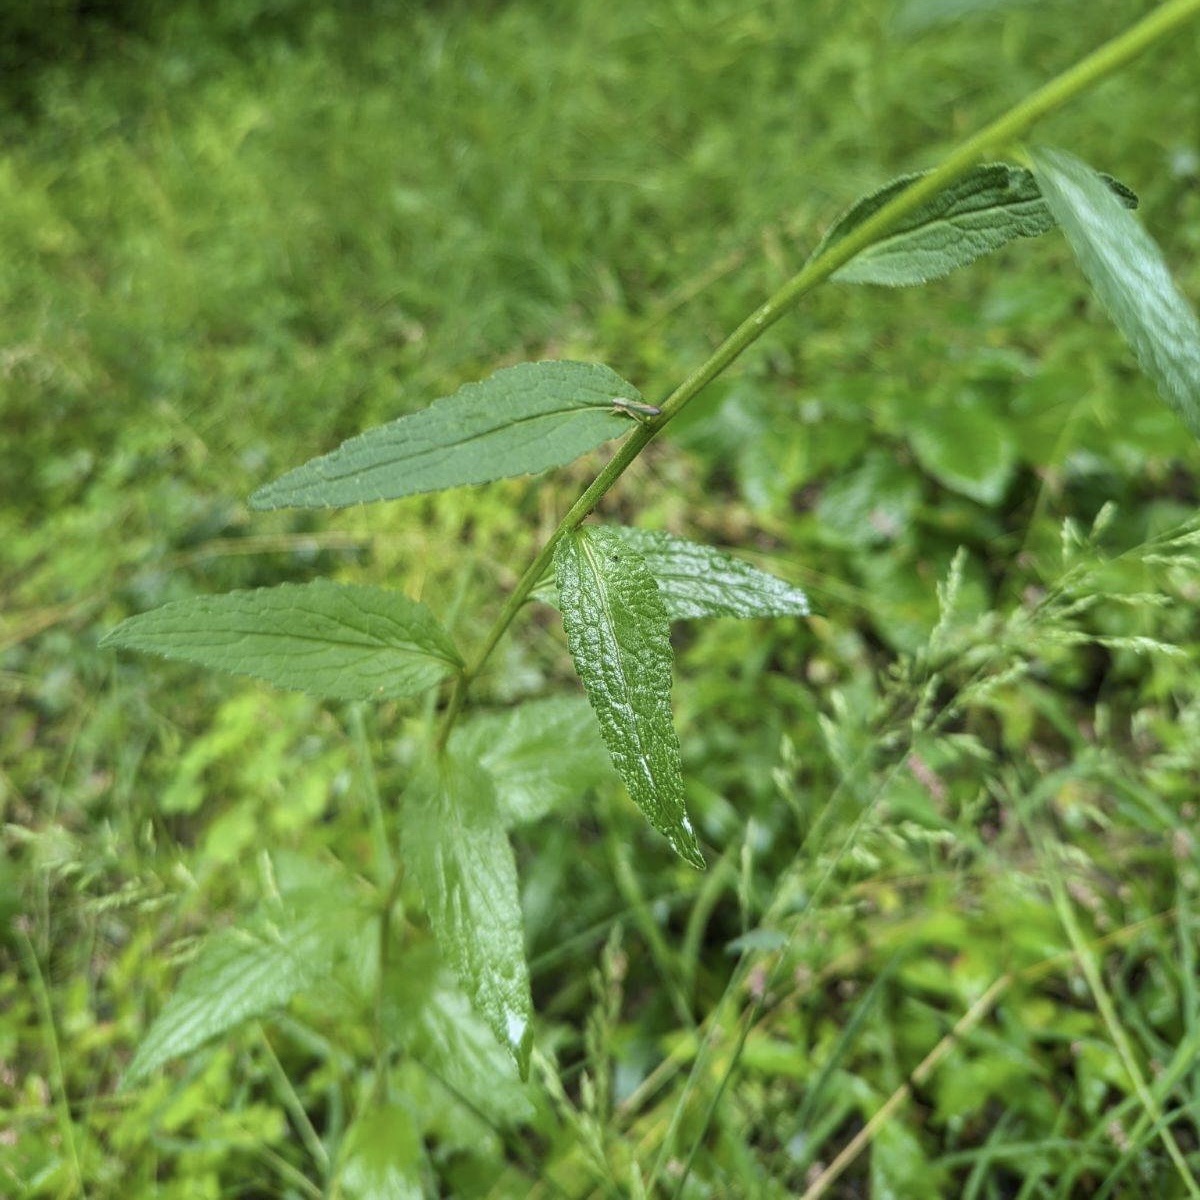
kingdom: Plantae
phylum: Tracheophyta
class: Magnoliopsida
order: Asterales
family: Campanulaceae
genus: Campanula
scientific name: Campanula rapunculoides
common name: Creeping bellflower
